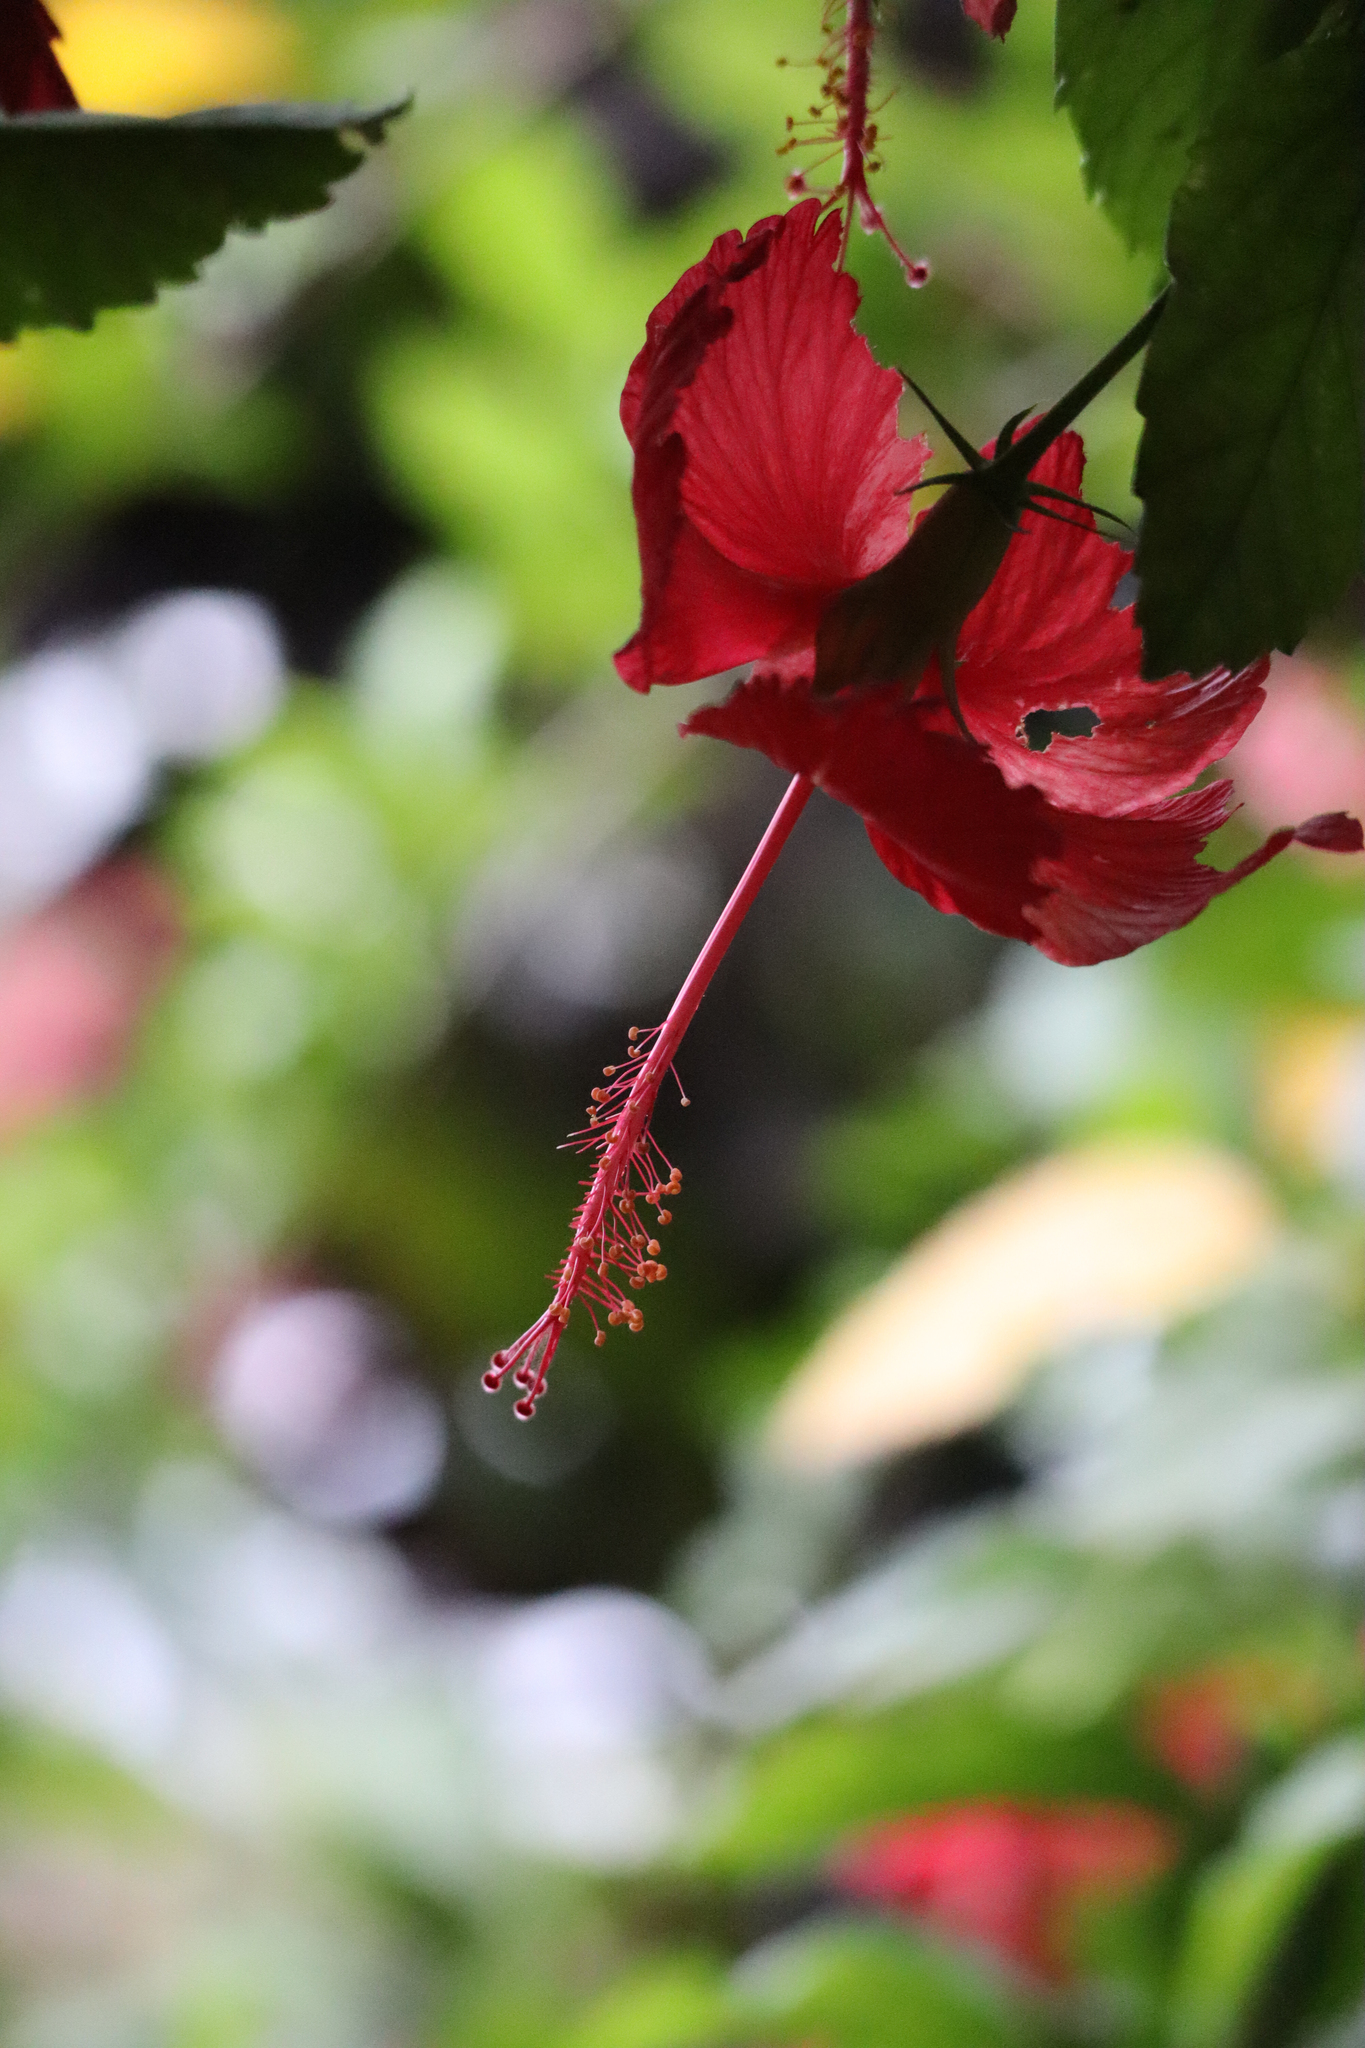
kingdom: Plantae
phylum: Tracheophyta
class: Magnoliopsida
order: Malvales
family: Malvaceae
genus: Hibiscus
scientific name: Hibiscus archeri
